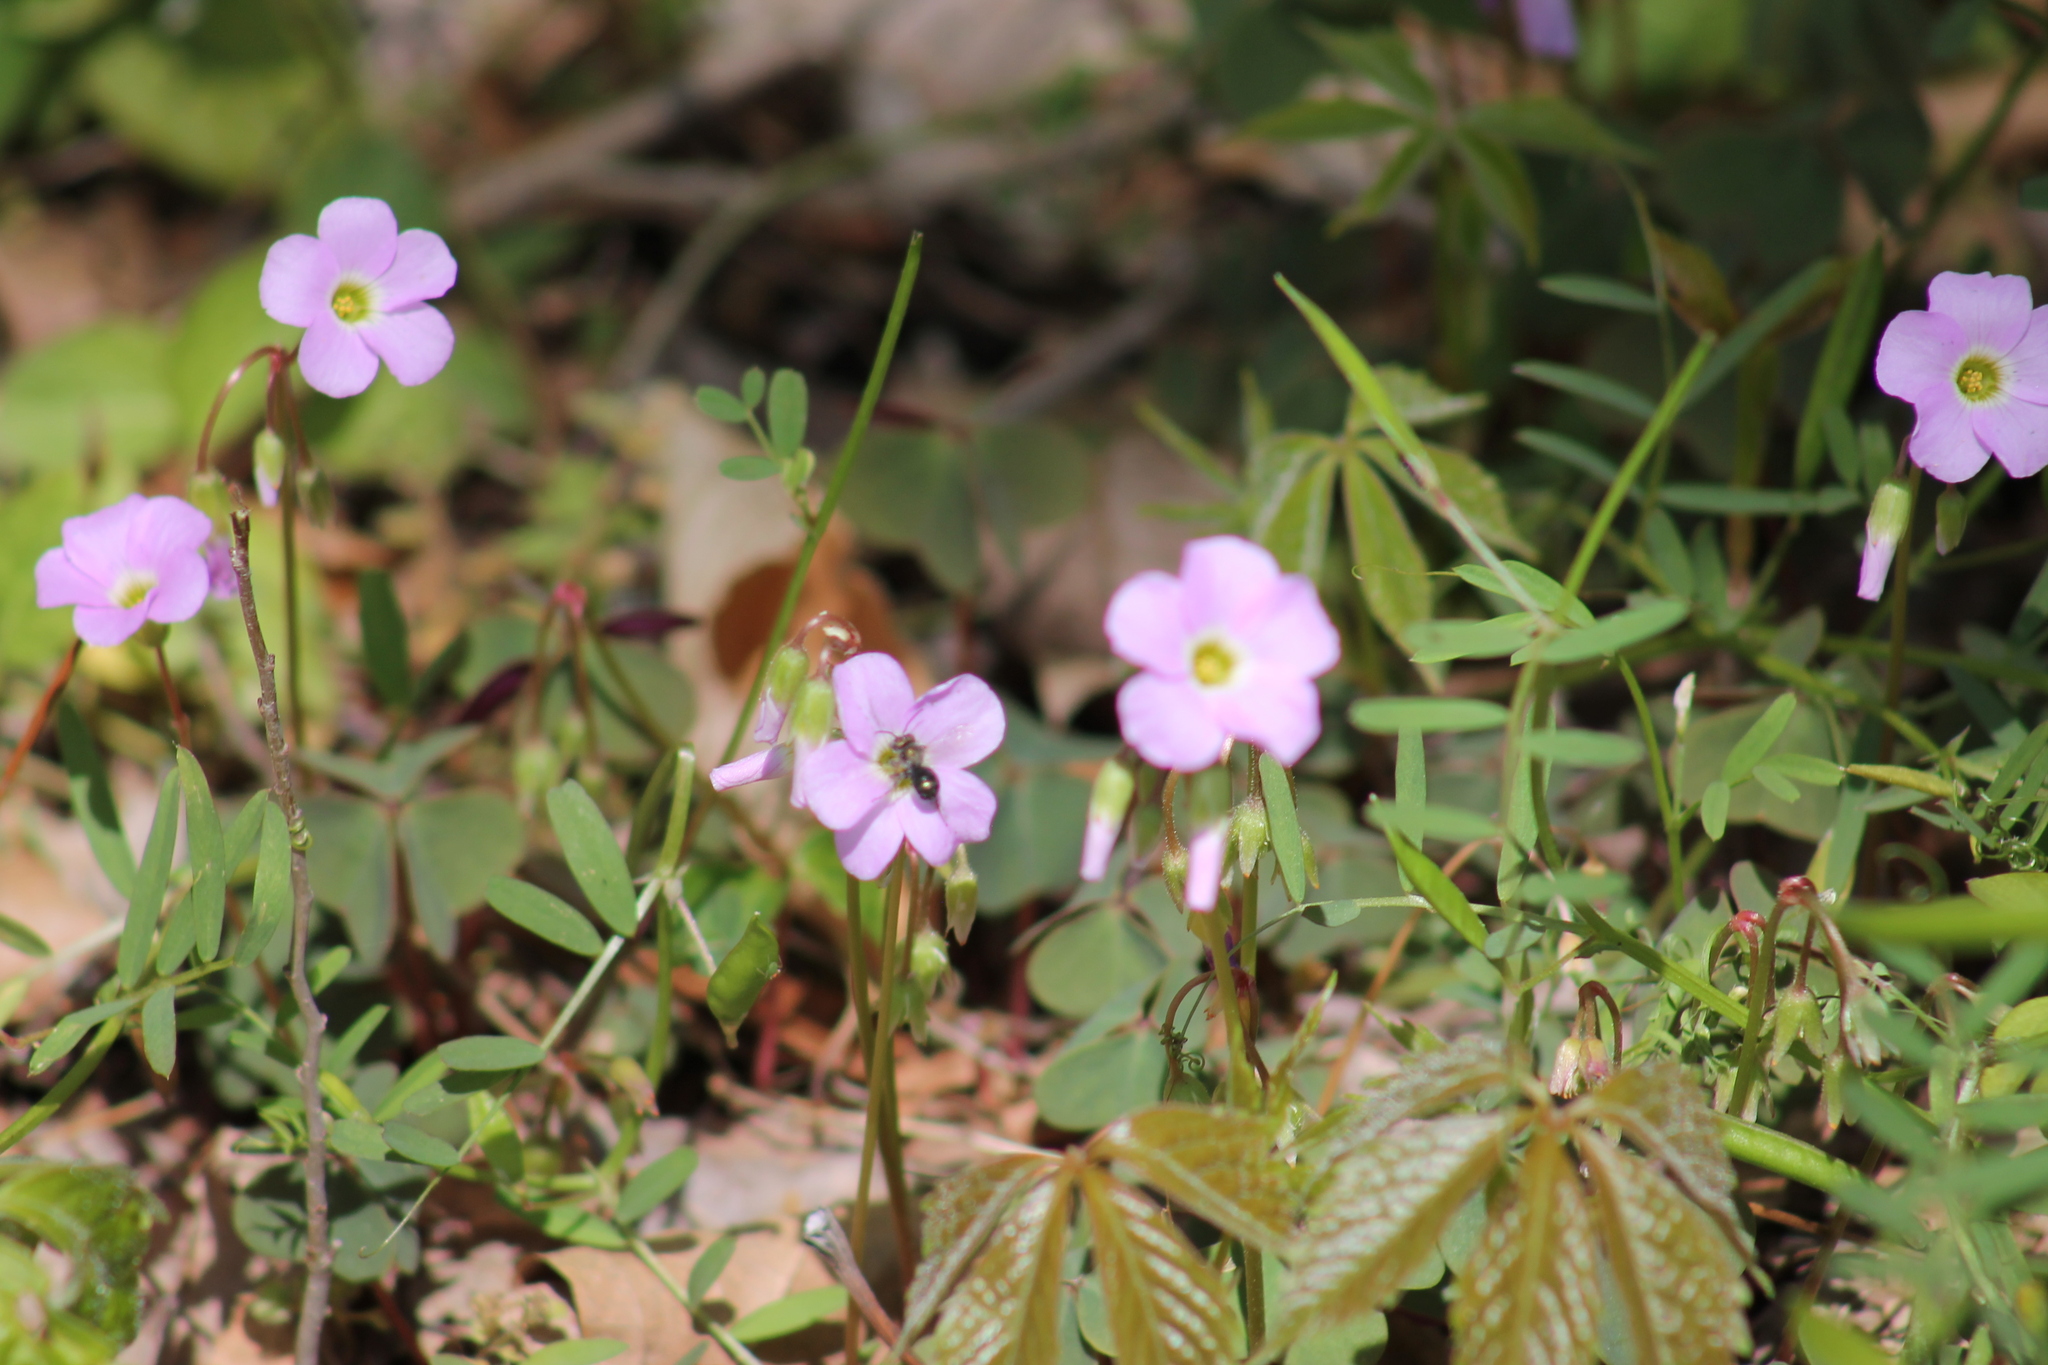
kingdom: Plantae
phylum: Tracheophyta
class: Magnoliopsida
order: Oxalidales
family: Oxalidaceae
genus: Oxalis
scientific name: Oxalis violacea
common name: Violet wood-sorrel
